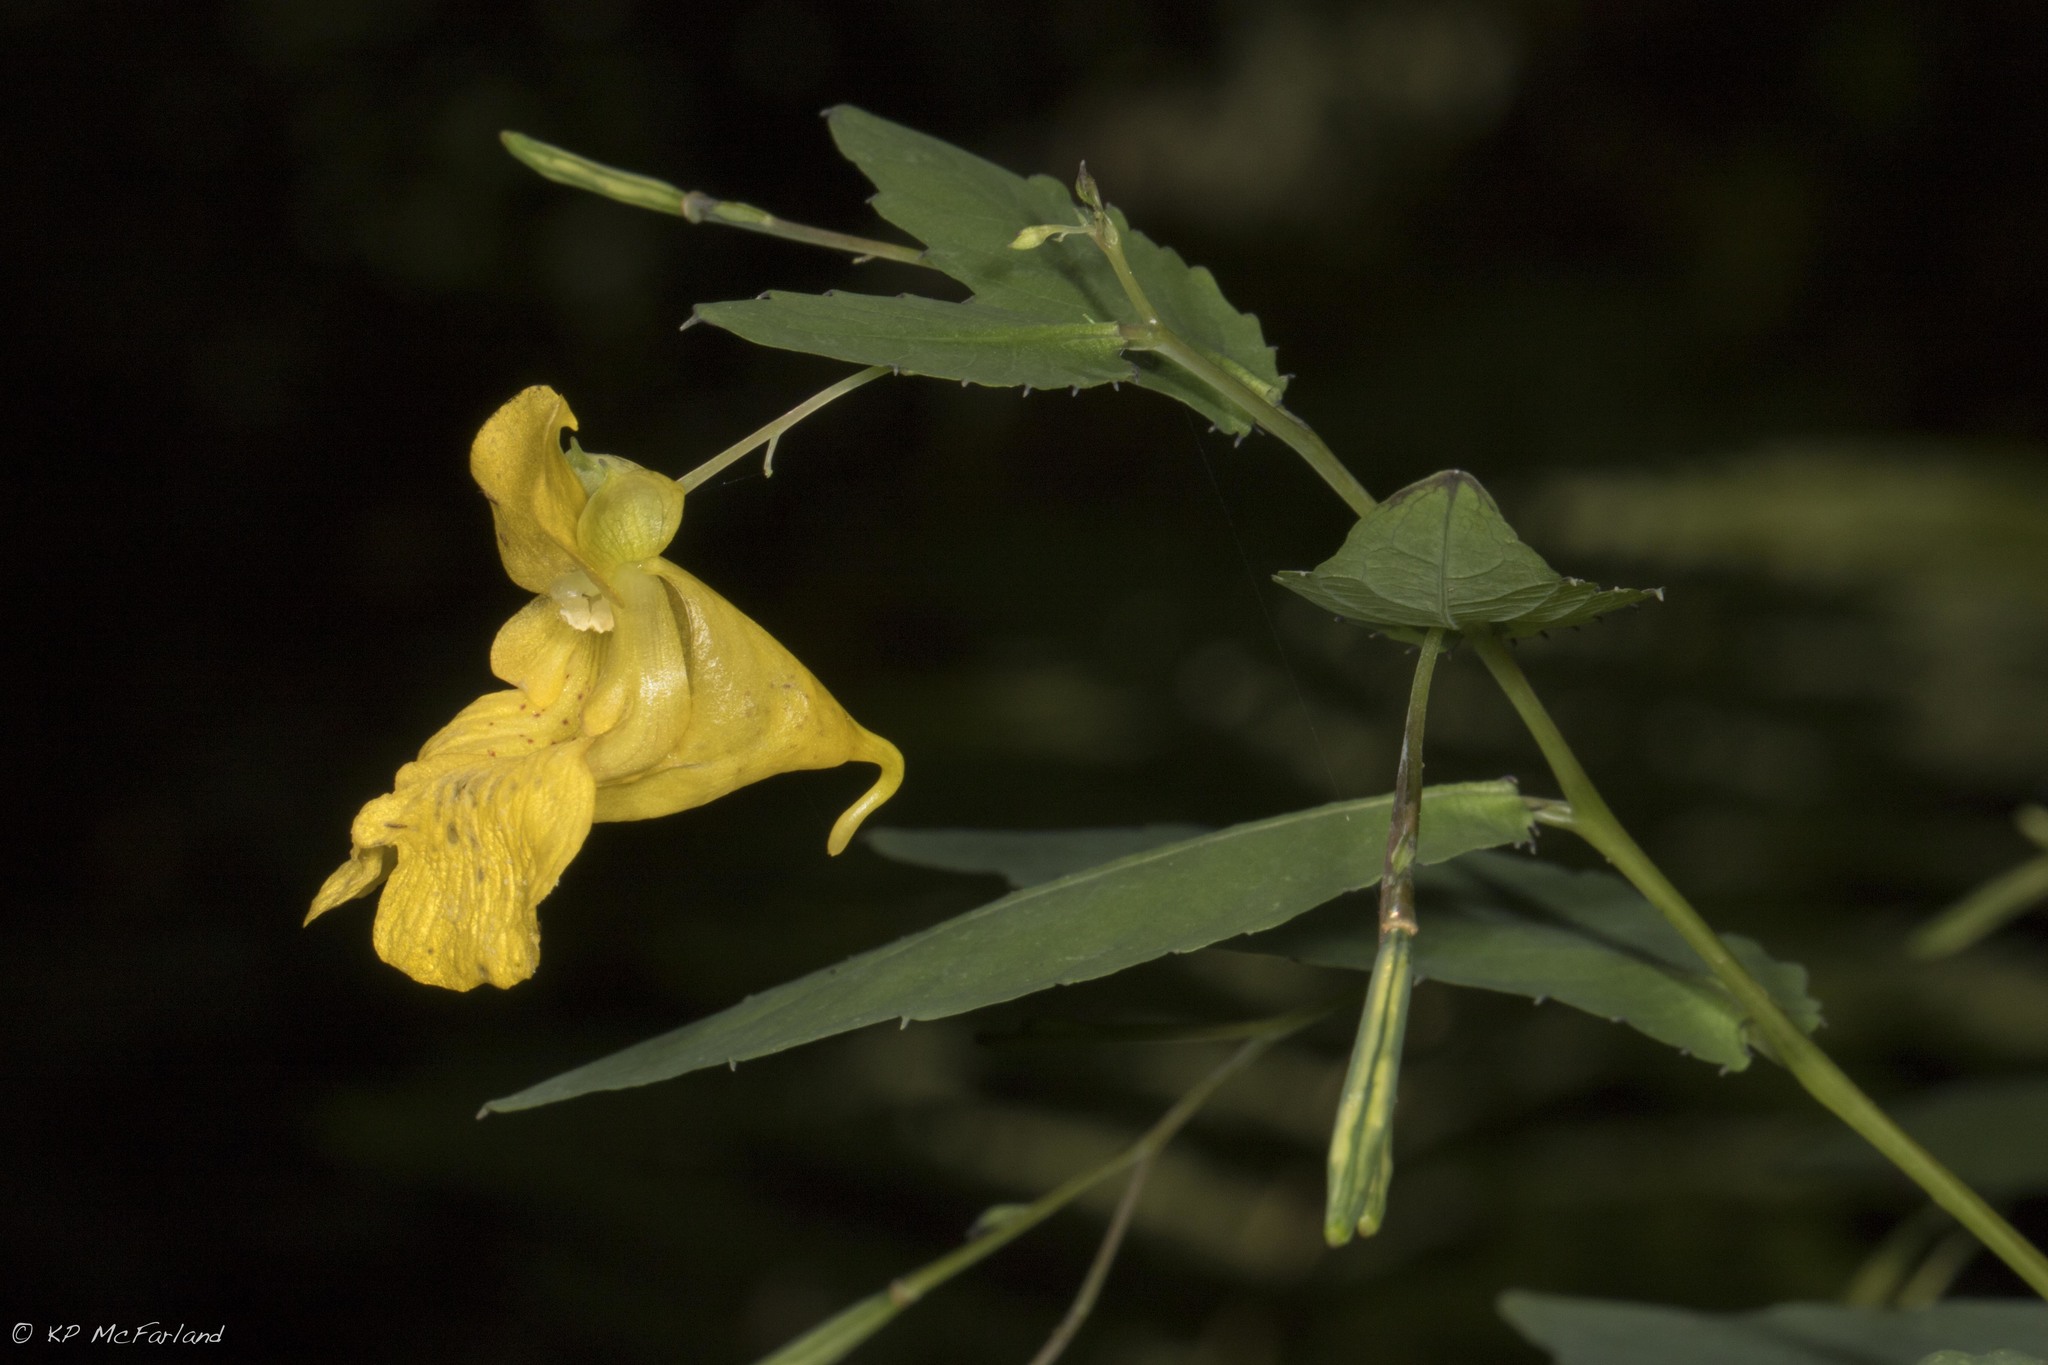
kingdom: Plantae
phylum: Tracheophyta
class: Magnoliopsida
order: Ericales
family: Balsaminaceae
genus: Impatiens
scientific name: Impatiens pallida
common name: Pale snapweed
